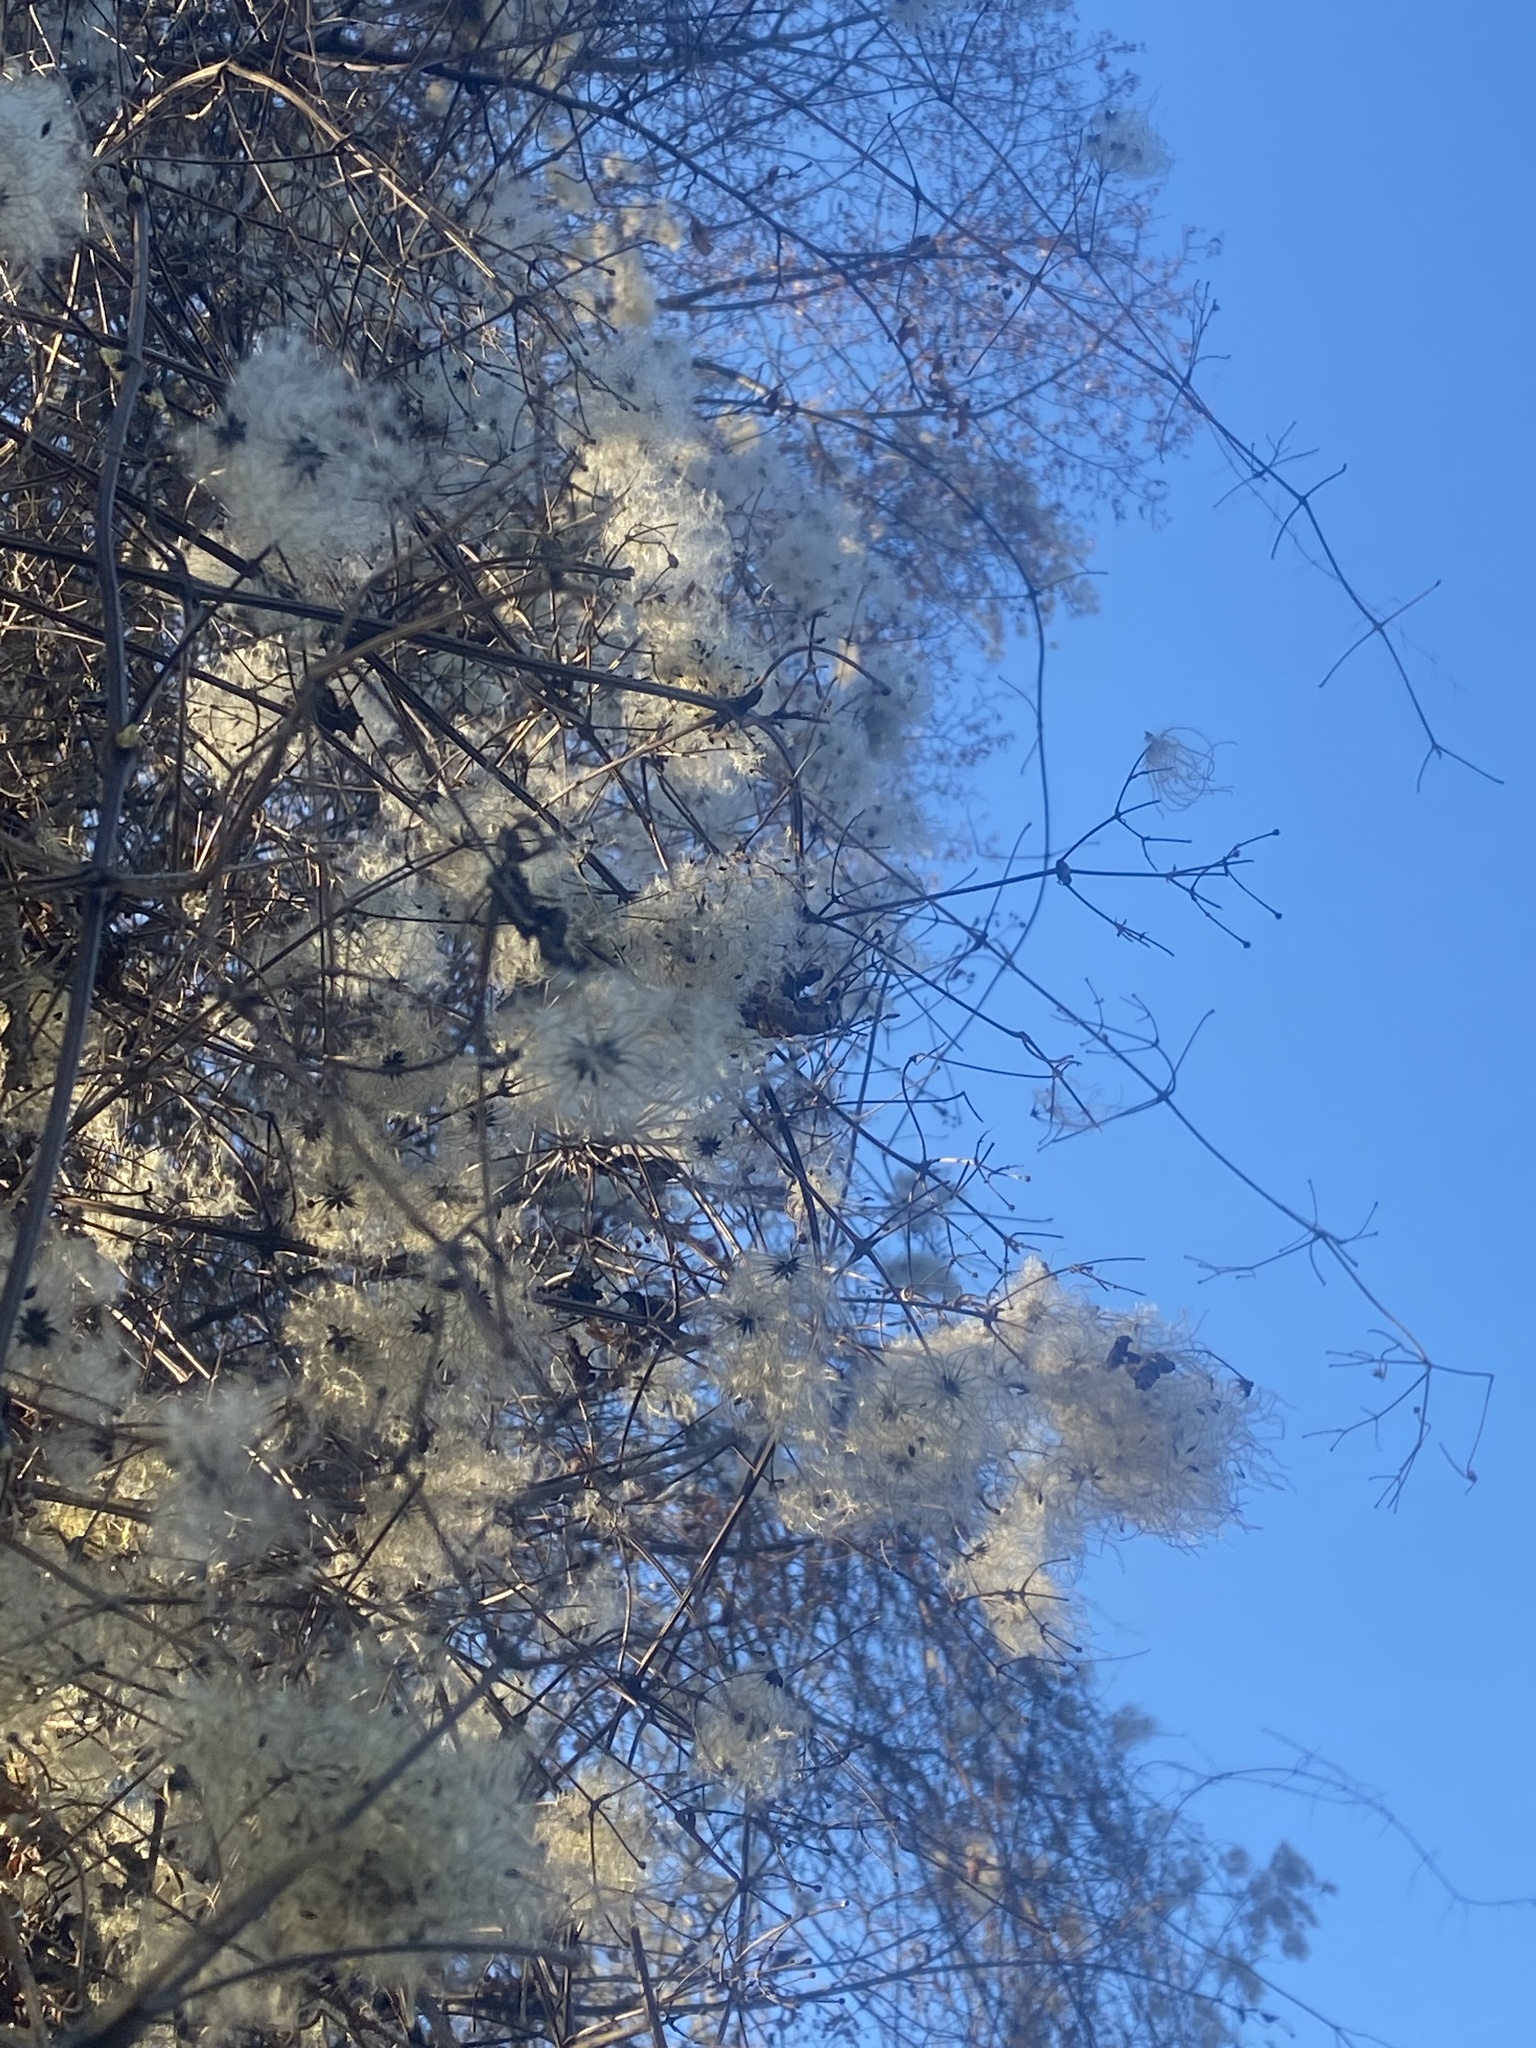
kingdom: Plantae
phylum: Tracheophyta
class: Magnoliopsida
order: Ranunculales
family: Ranunculaceae
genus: Clematis
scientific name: Clematis vitalba
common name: Evergreen clematis
